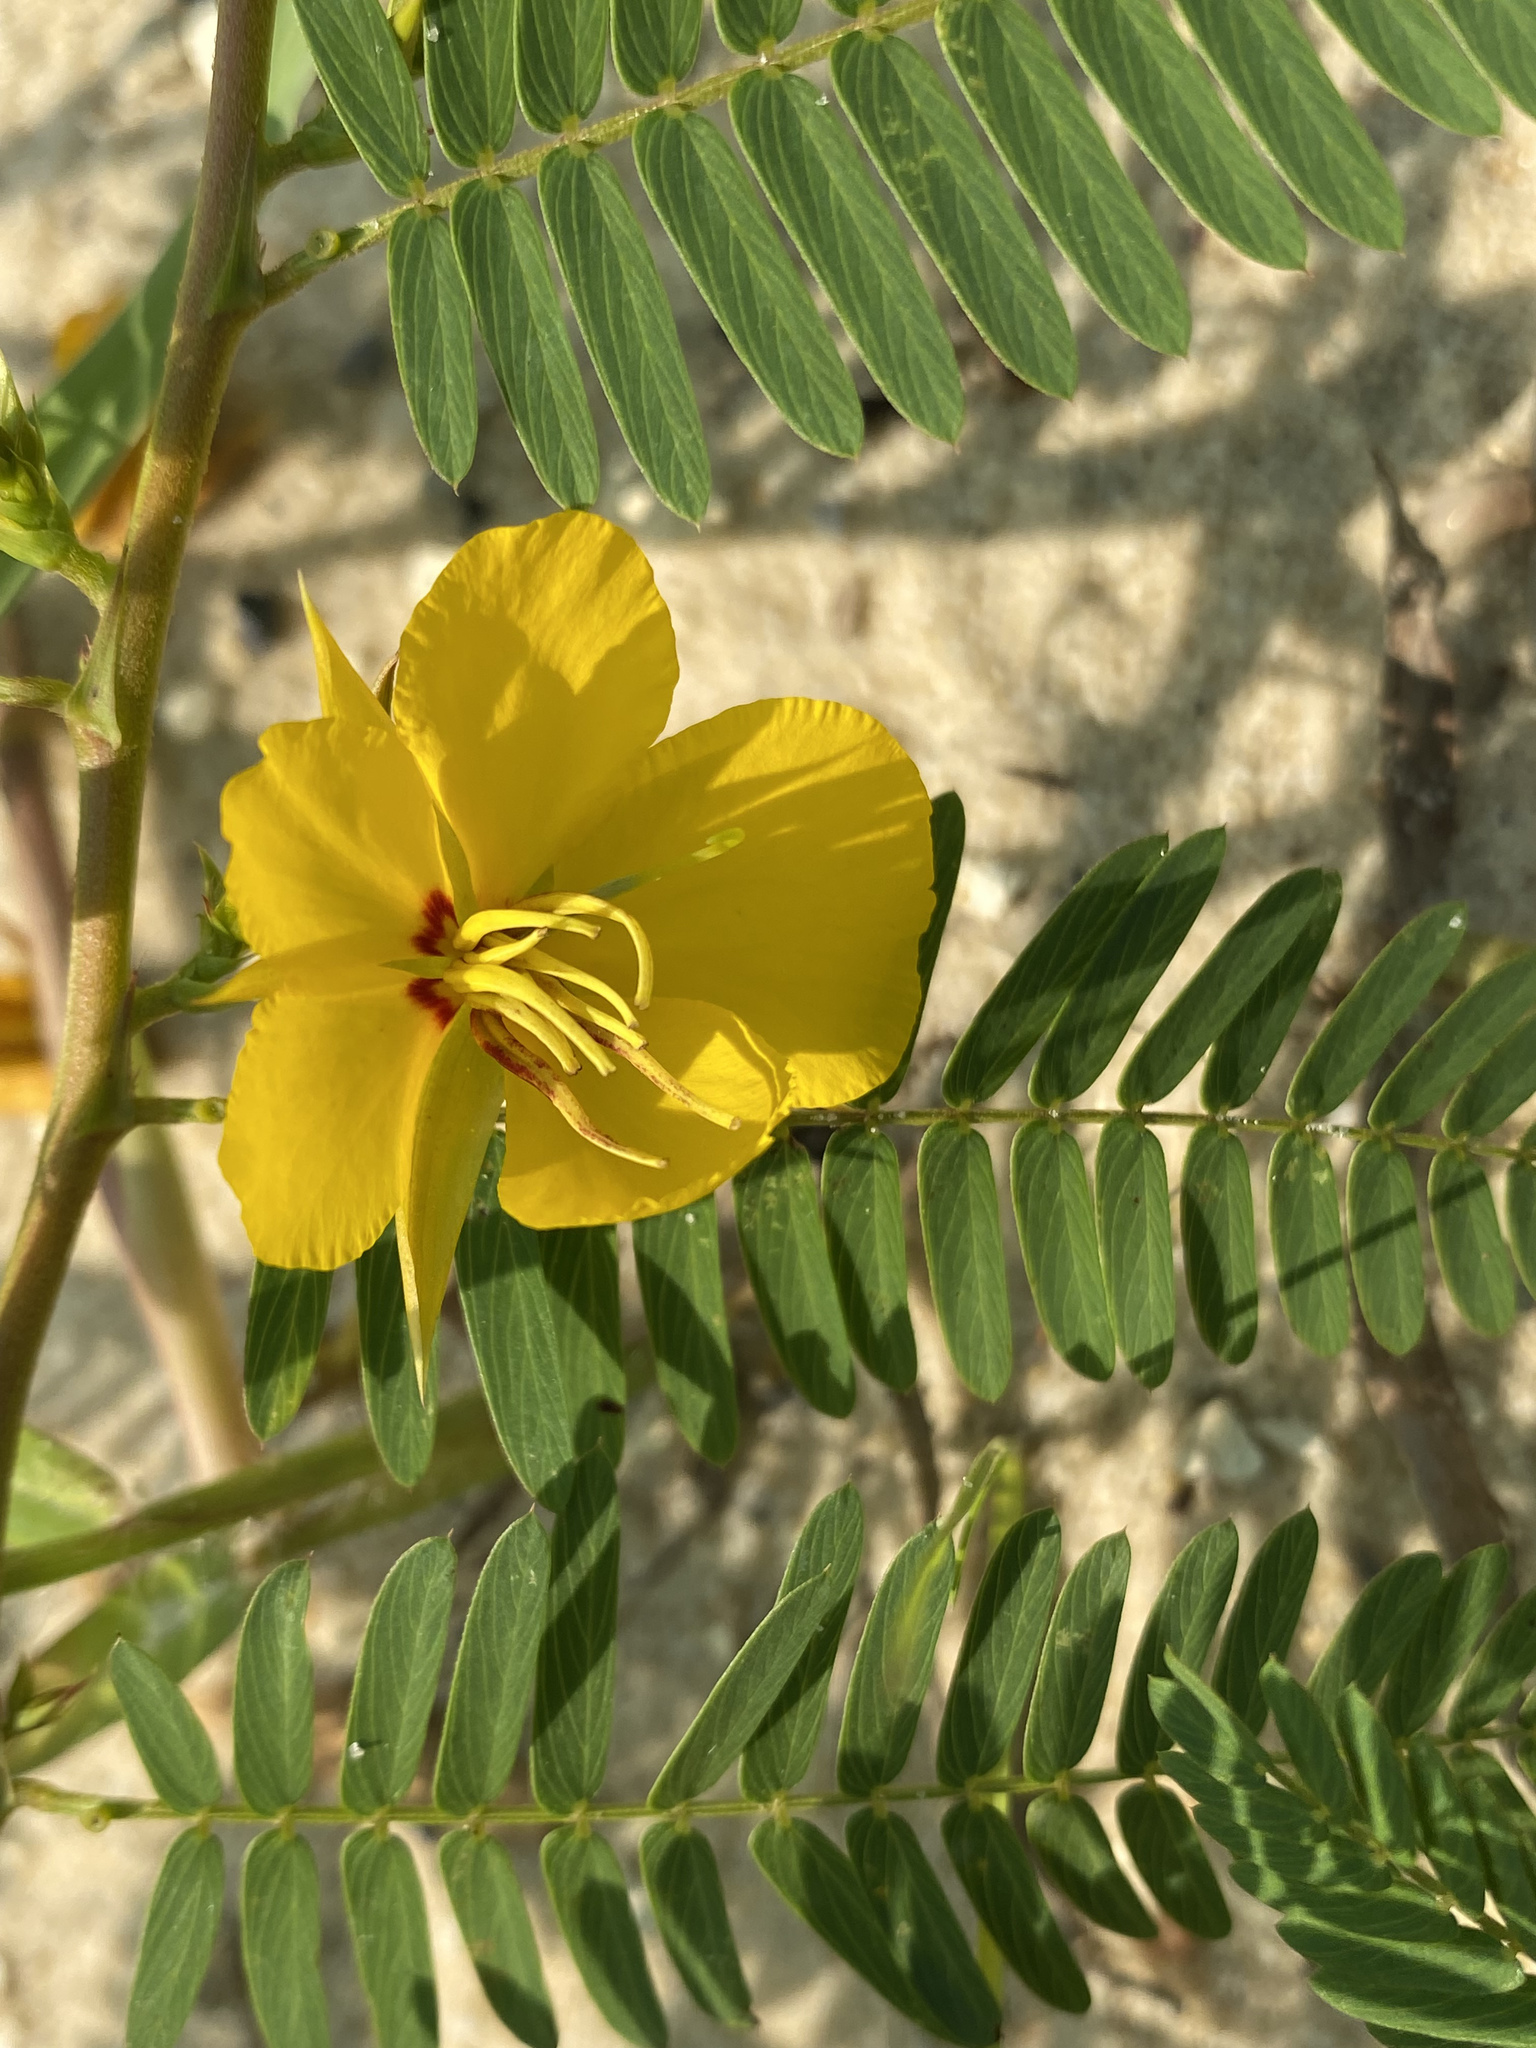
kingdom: Plantae
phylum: Tracheophyta
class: Magnoliopsida
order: Fabales
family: Fabaceae
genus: Chamaecrista
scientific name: Chamaecrista fasciculata
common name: Golden cassia
